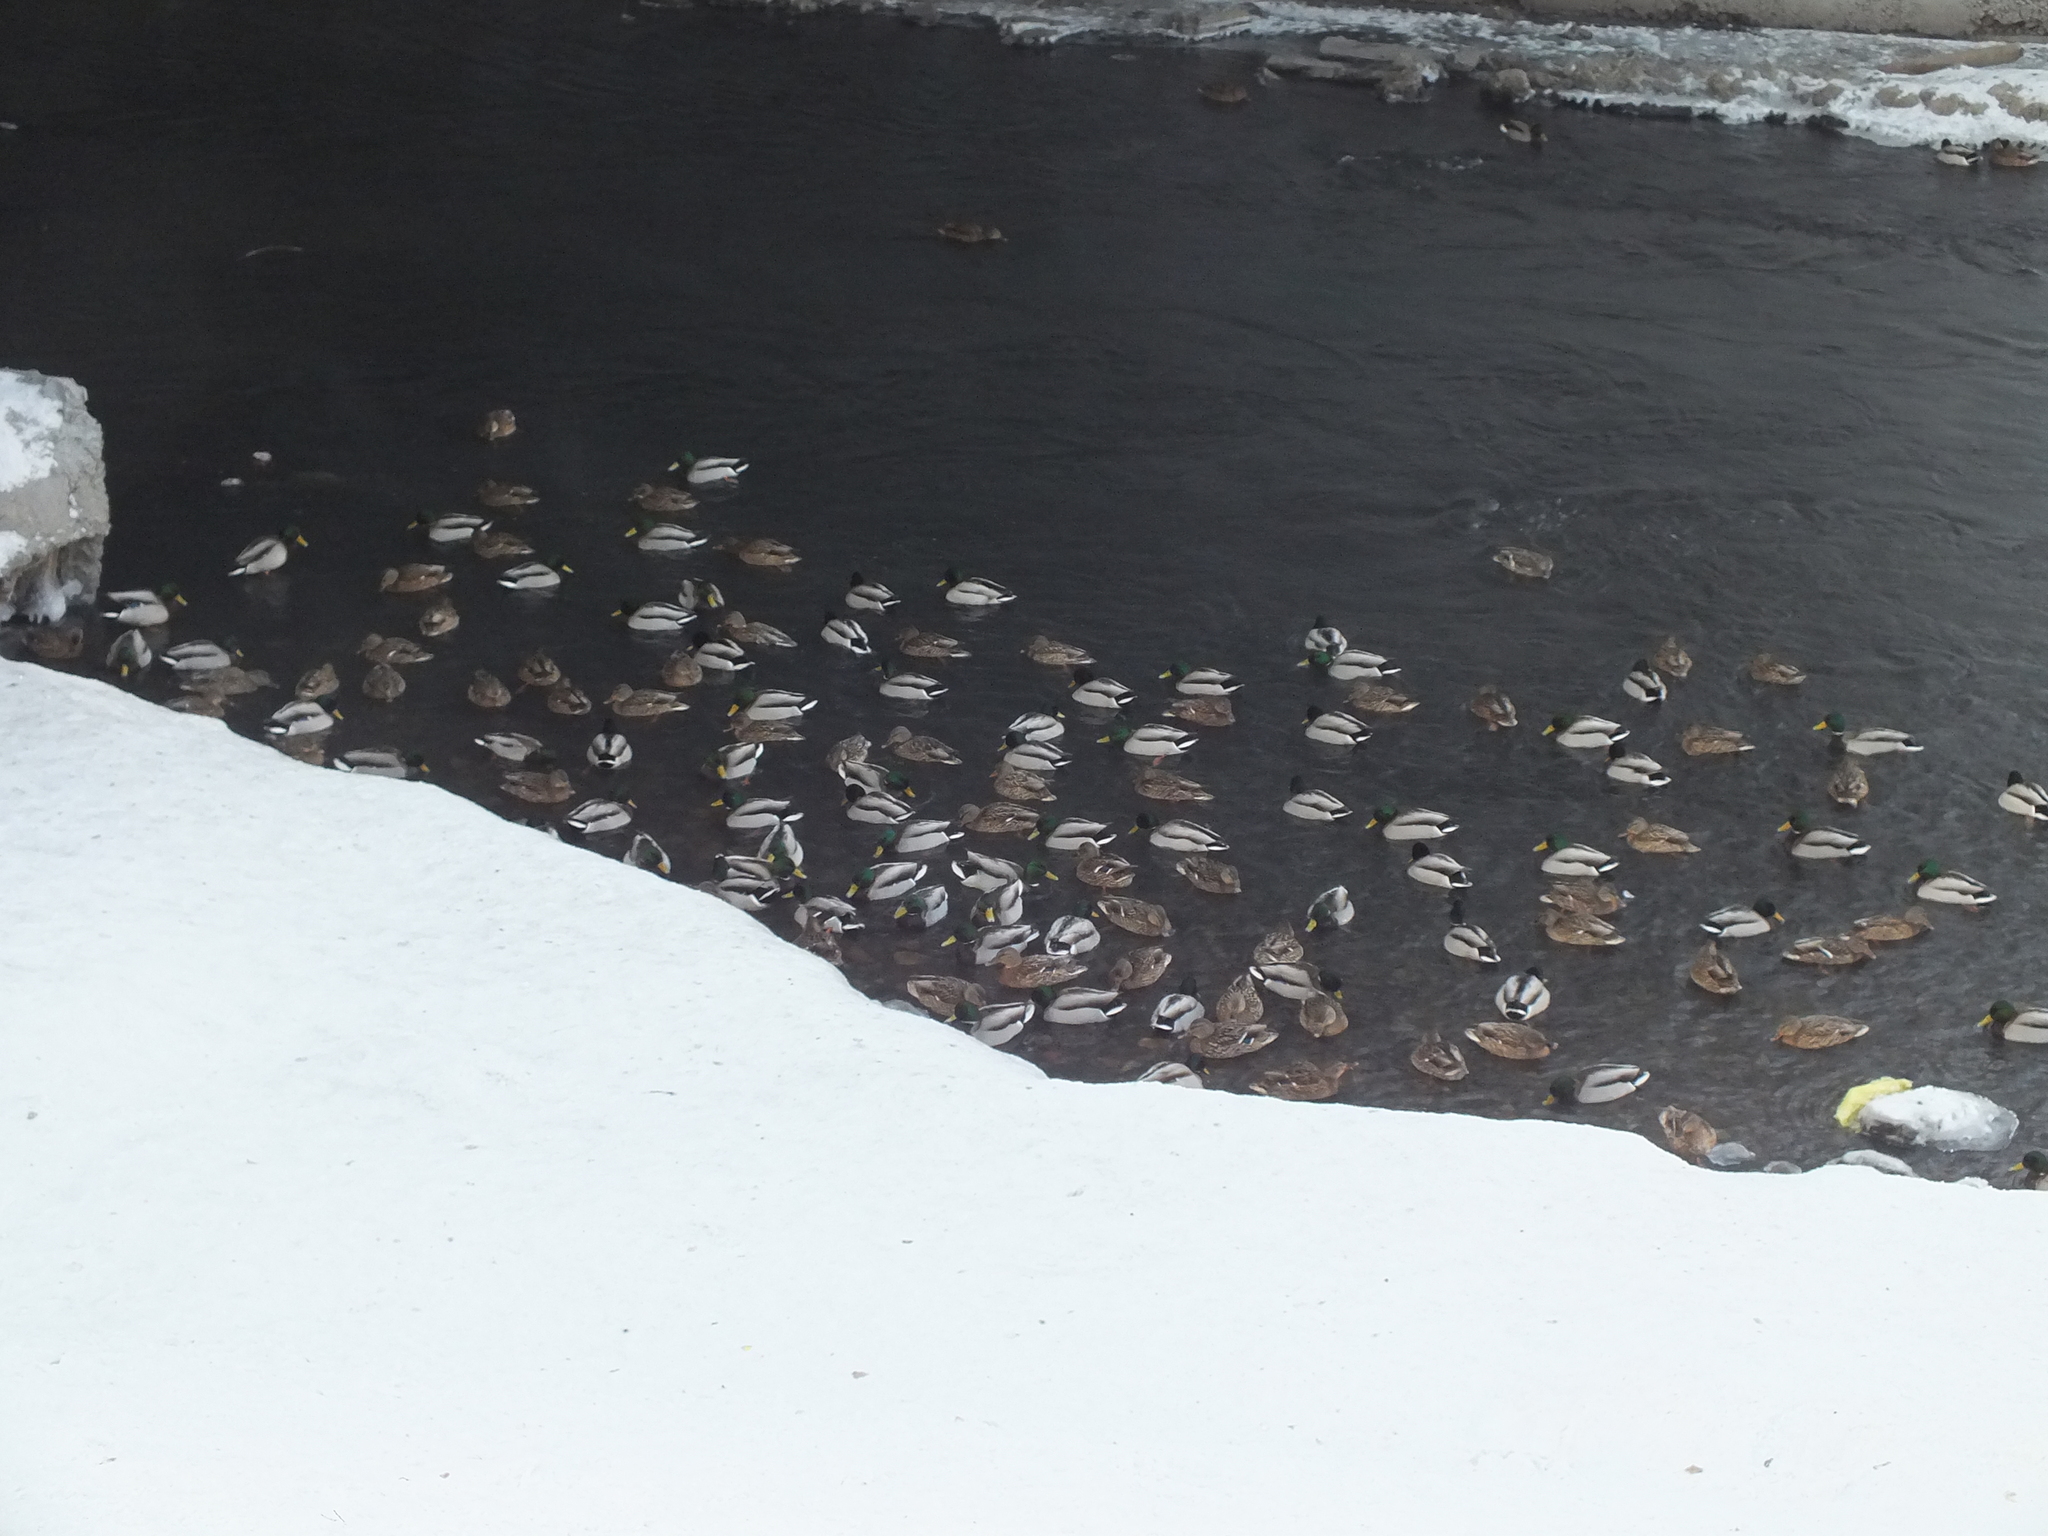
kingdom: Animalia
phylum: Chordata
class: Aves
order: Anseriformes
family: Anatidae
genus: Anas
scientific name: Anas platyrhynchos
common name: Mallard
